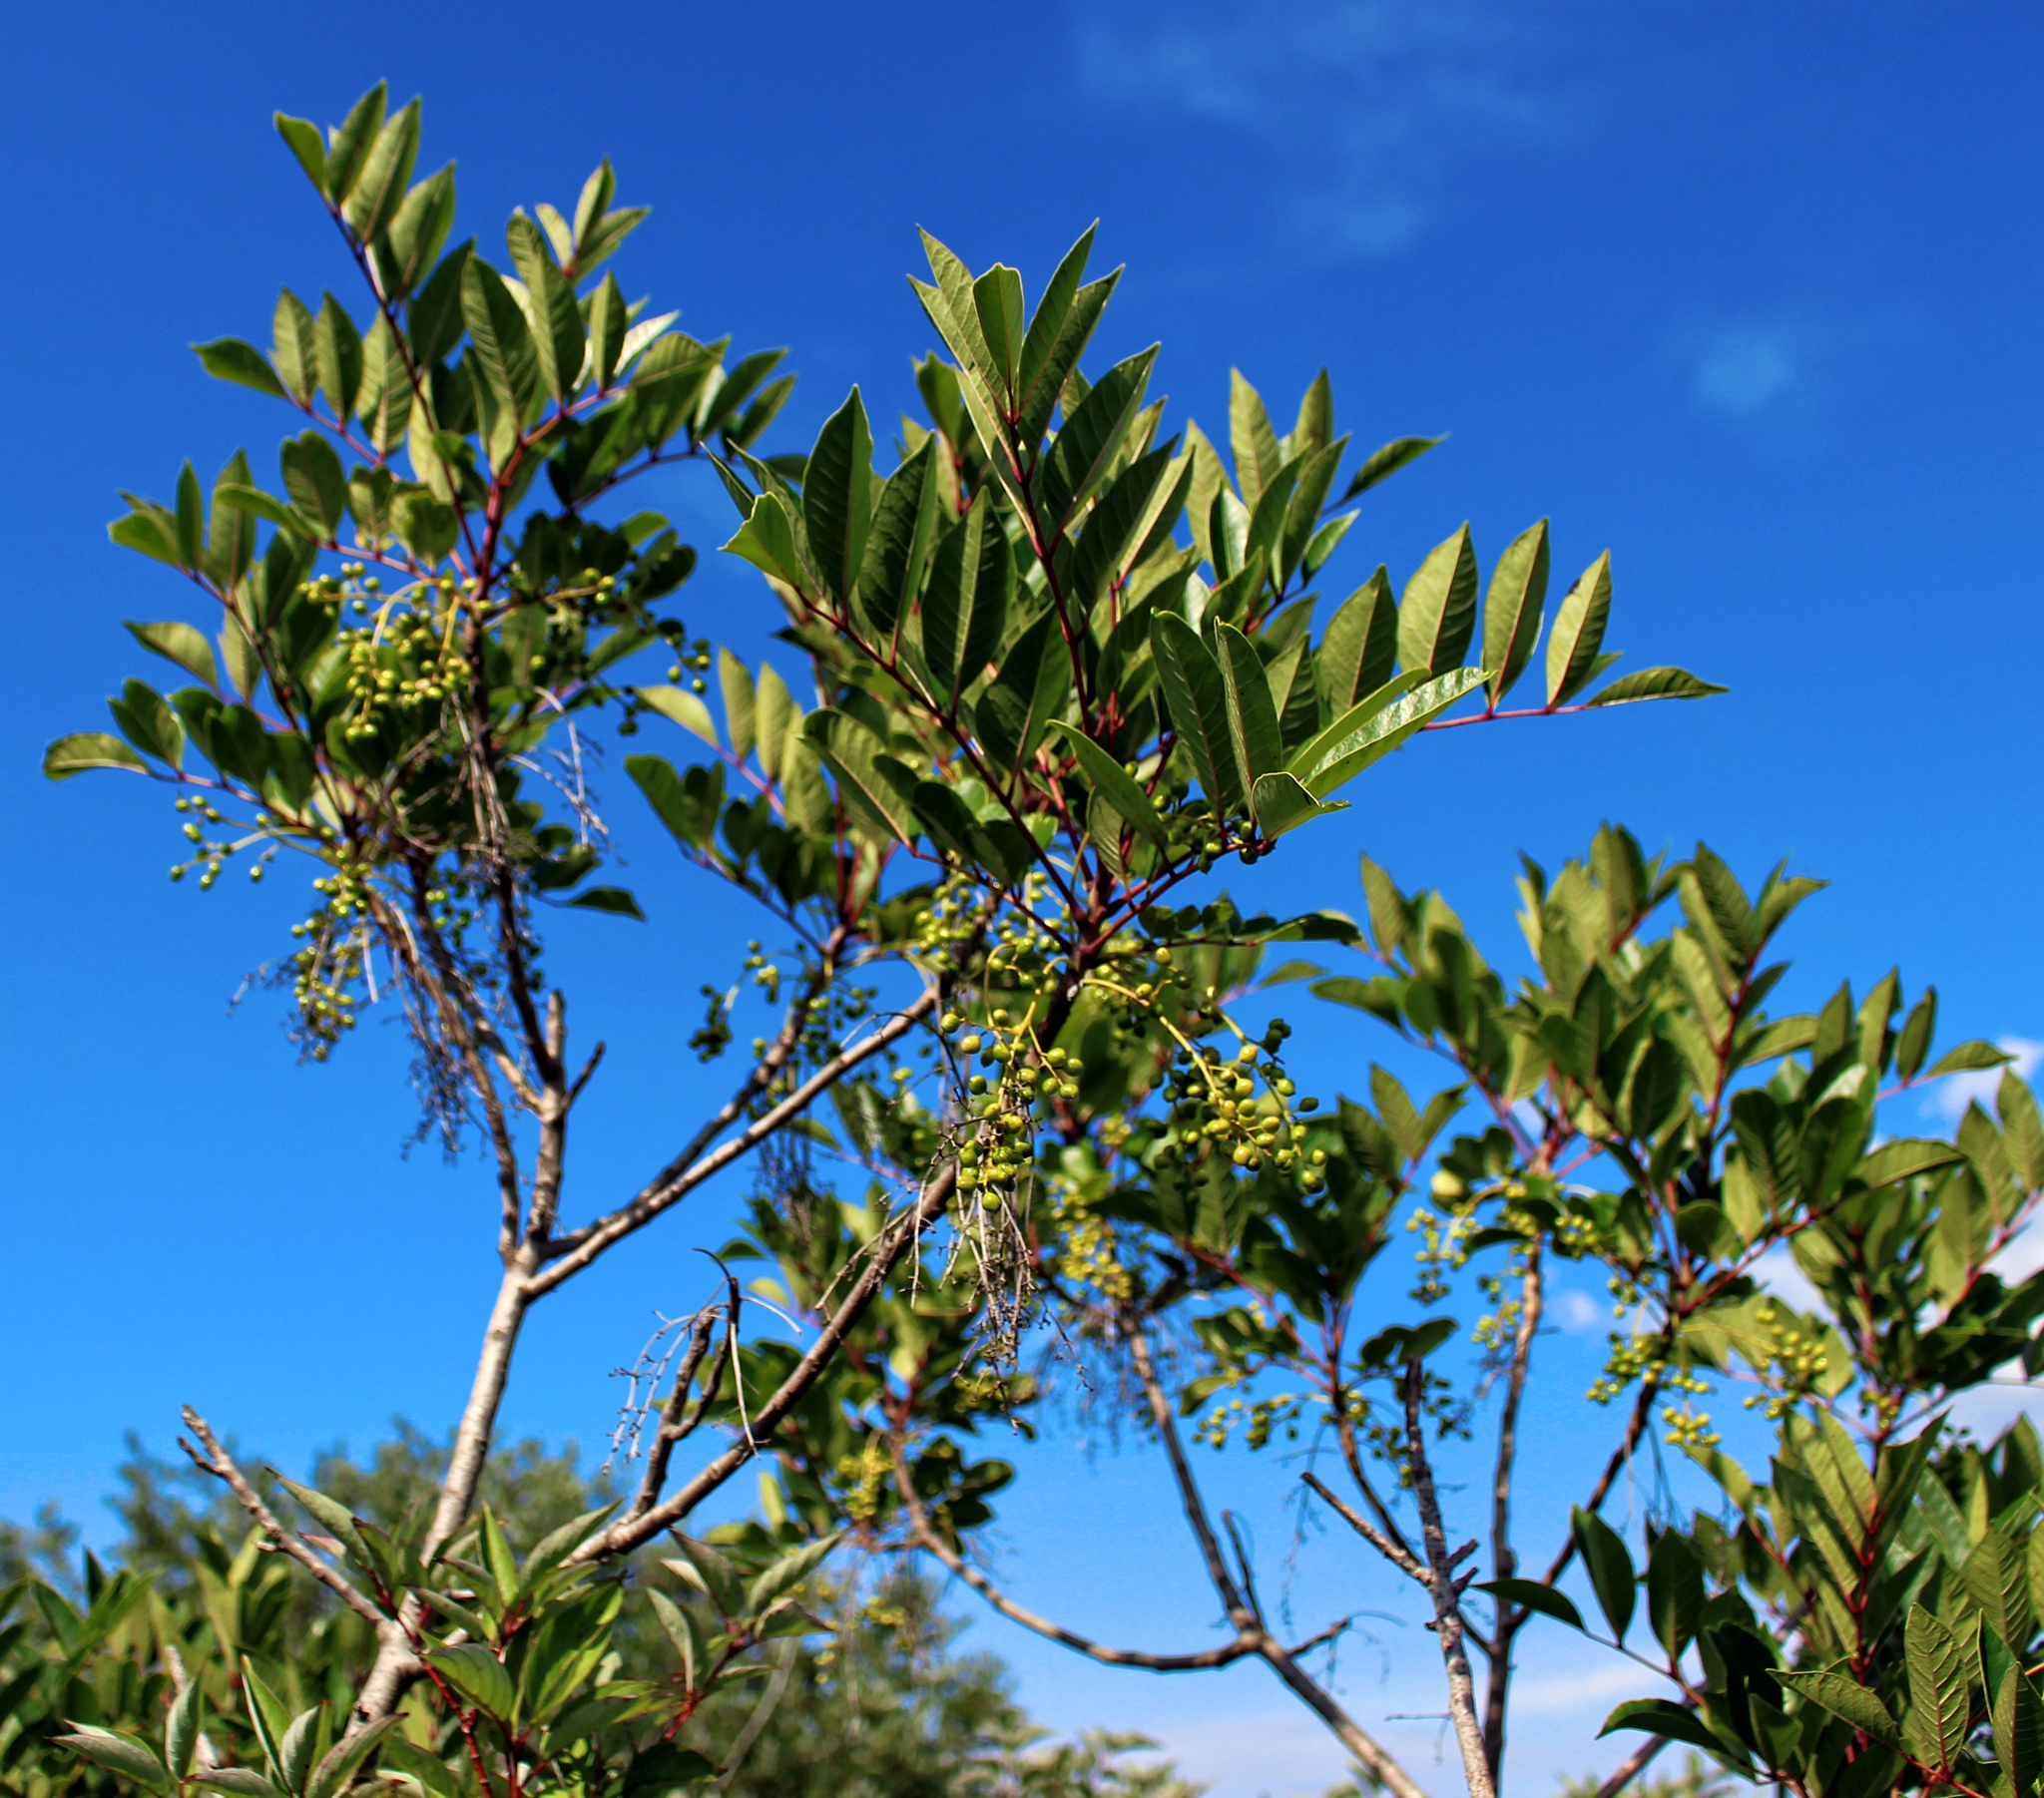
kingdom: Plantae
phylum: Tracheophyta
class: Magnoliopsida
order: Sapindales
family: Anacardiaceae
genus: Toxicodendron
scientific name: Toxicodendron vernix
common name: Poison sumac
